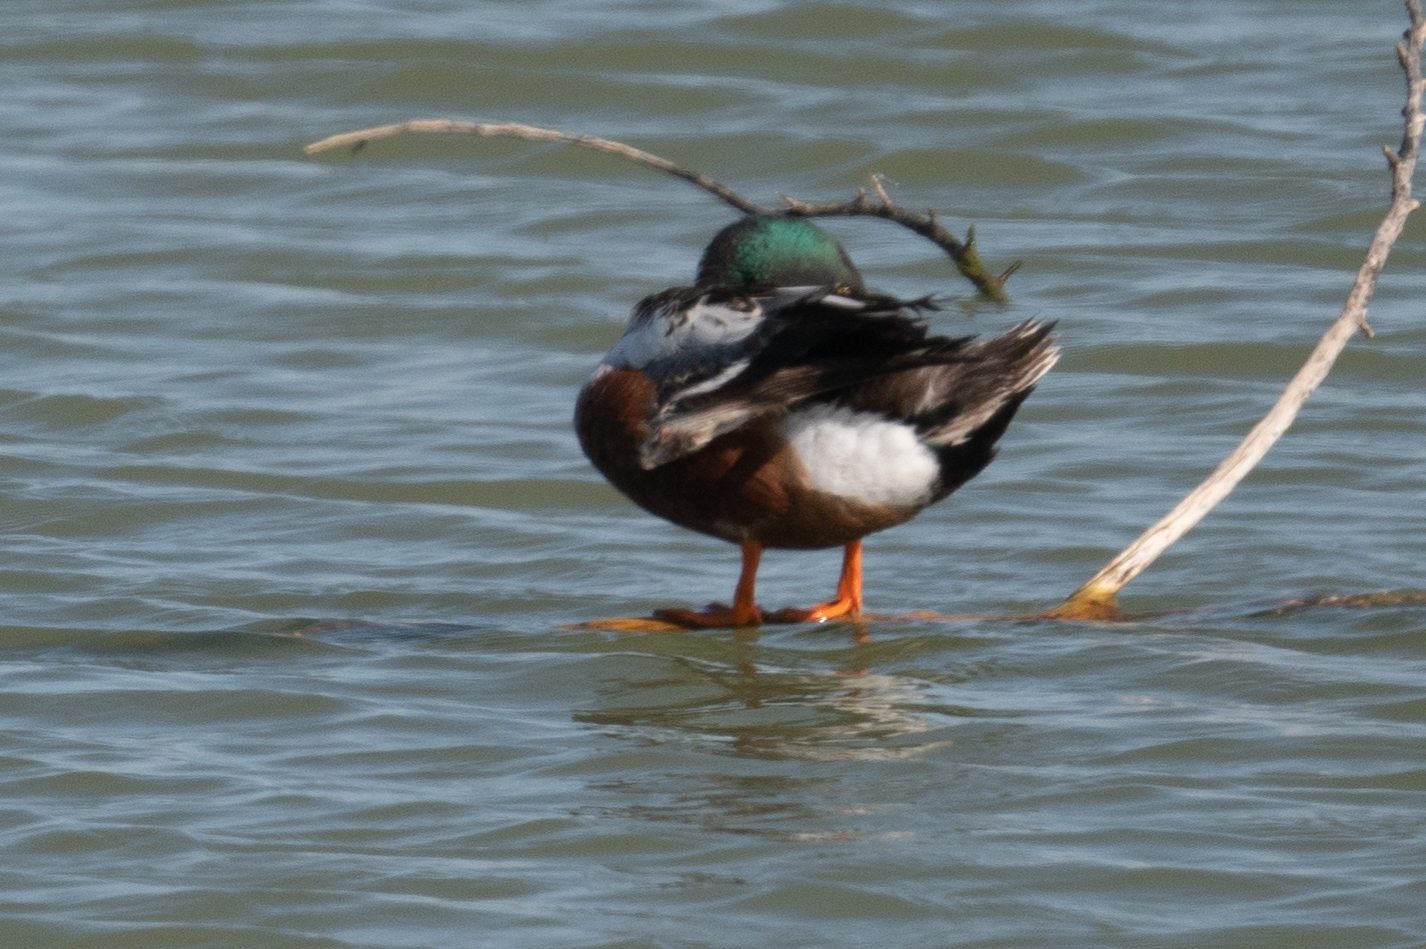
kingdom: Animalia
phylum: Chordata
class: Aves
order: Anseriformes
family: Anatidae
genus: Spatula
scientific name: Spatula clypeata
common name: Northern shoveler
